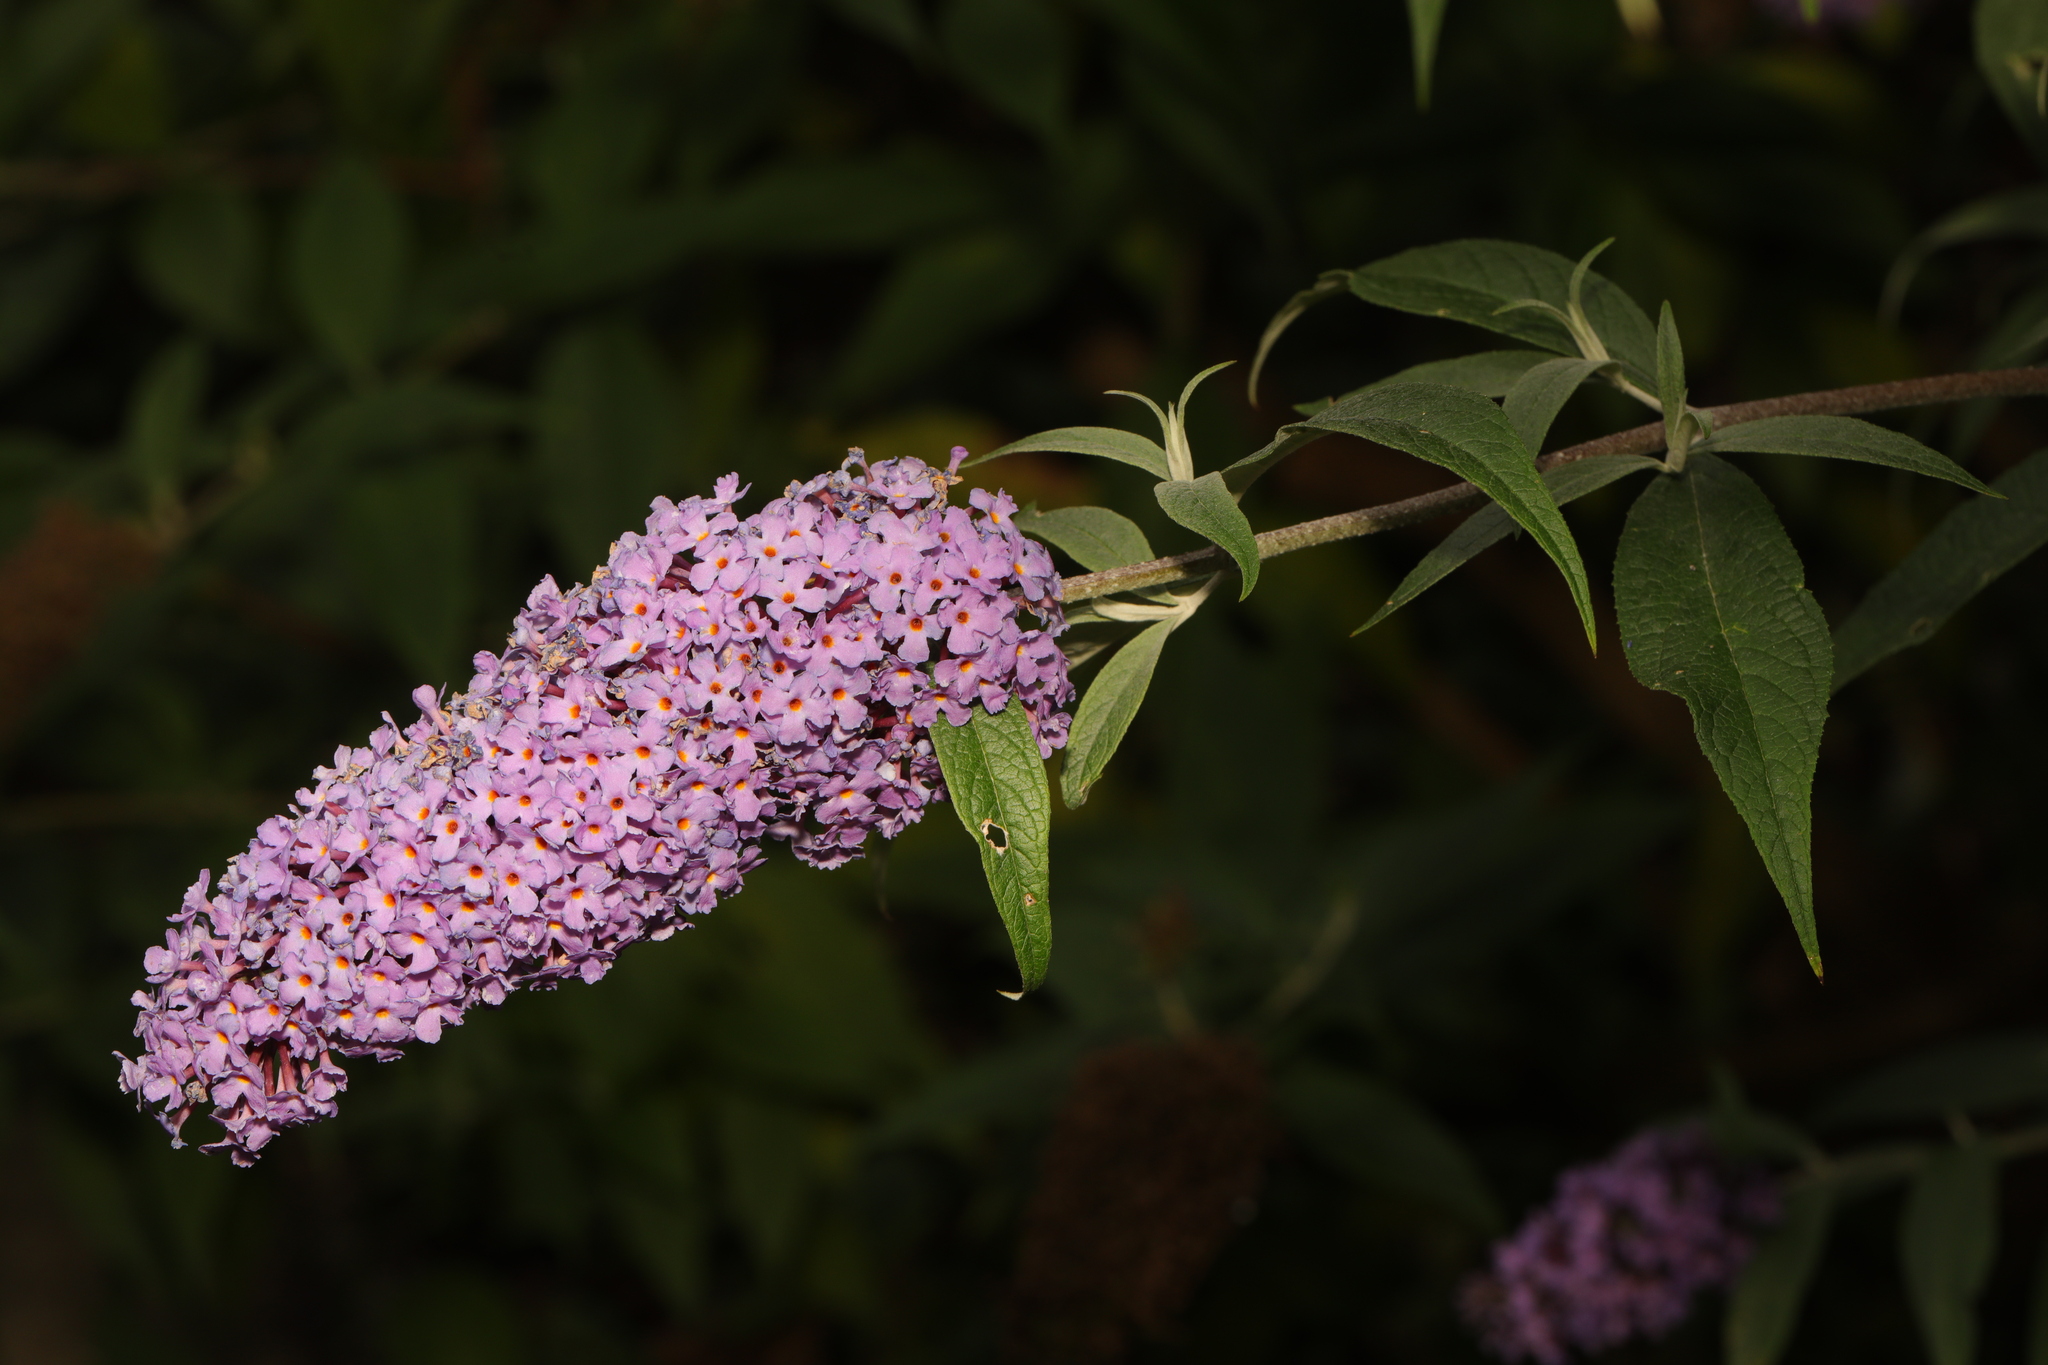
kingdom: Plantae
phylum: Tracheophyta
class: Magnoliopsida
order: Lamiales
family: Scrophulariaceae
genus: Buddleja
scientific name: Buddleja davidii
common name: Butterfly-bush
